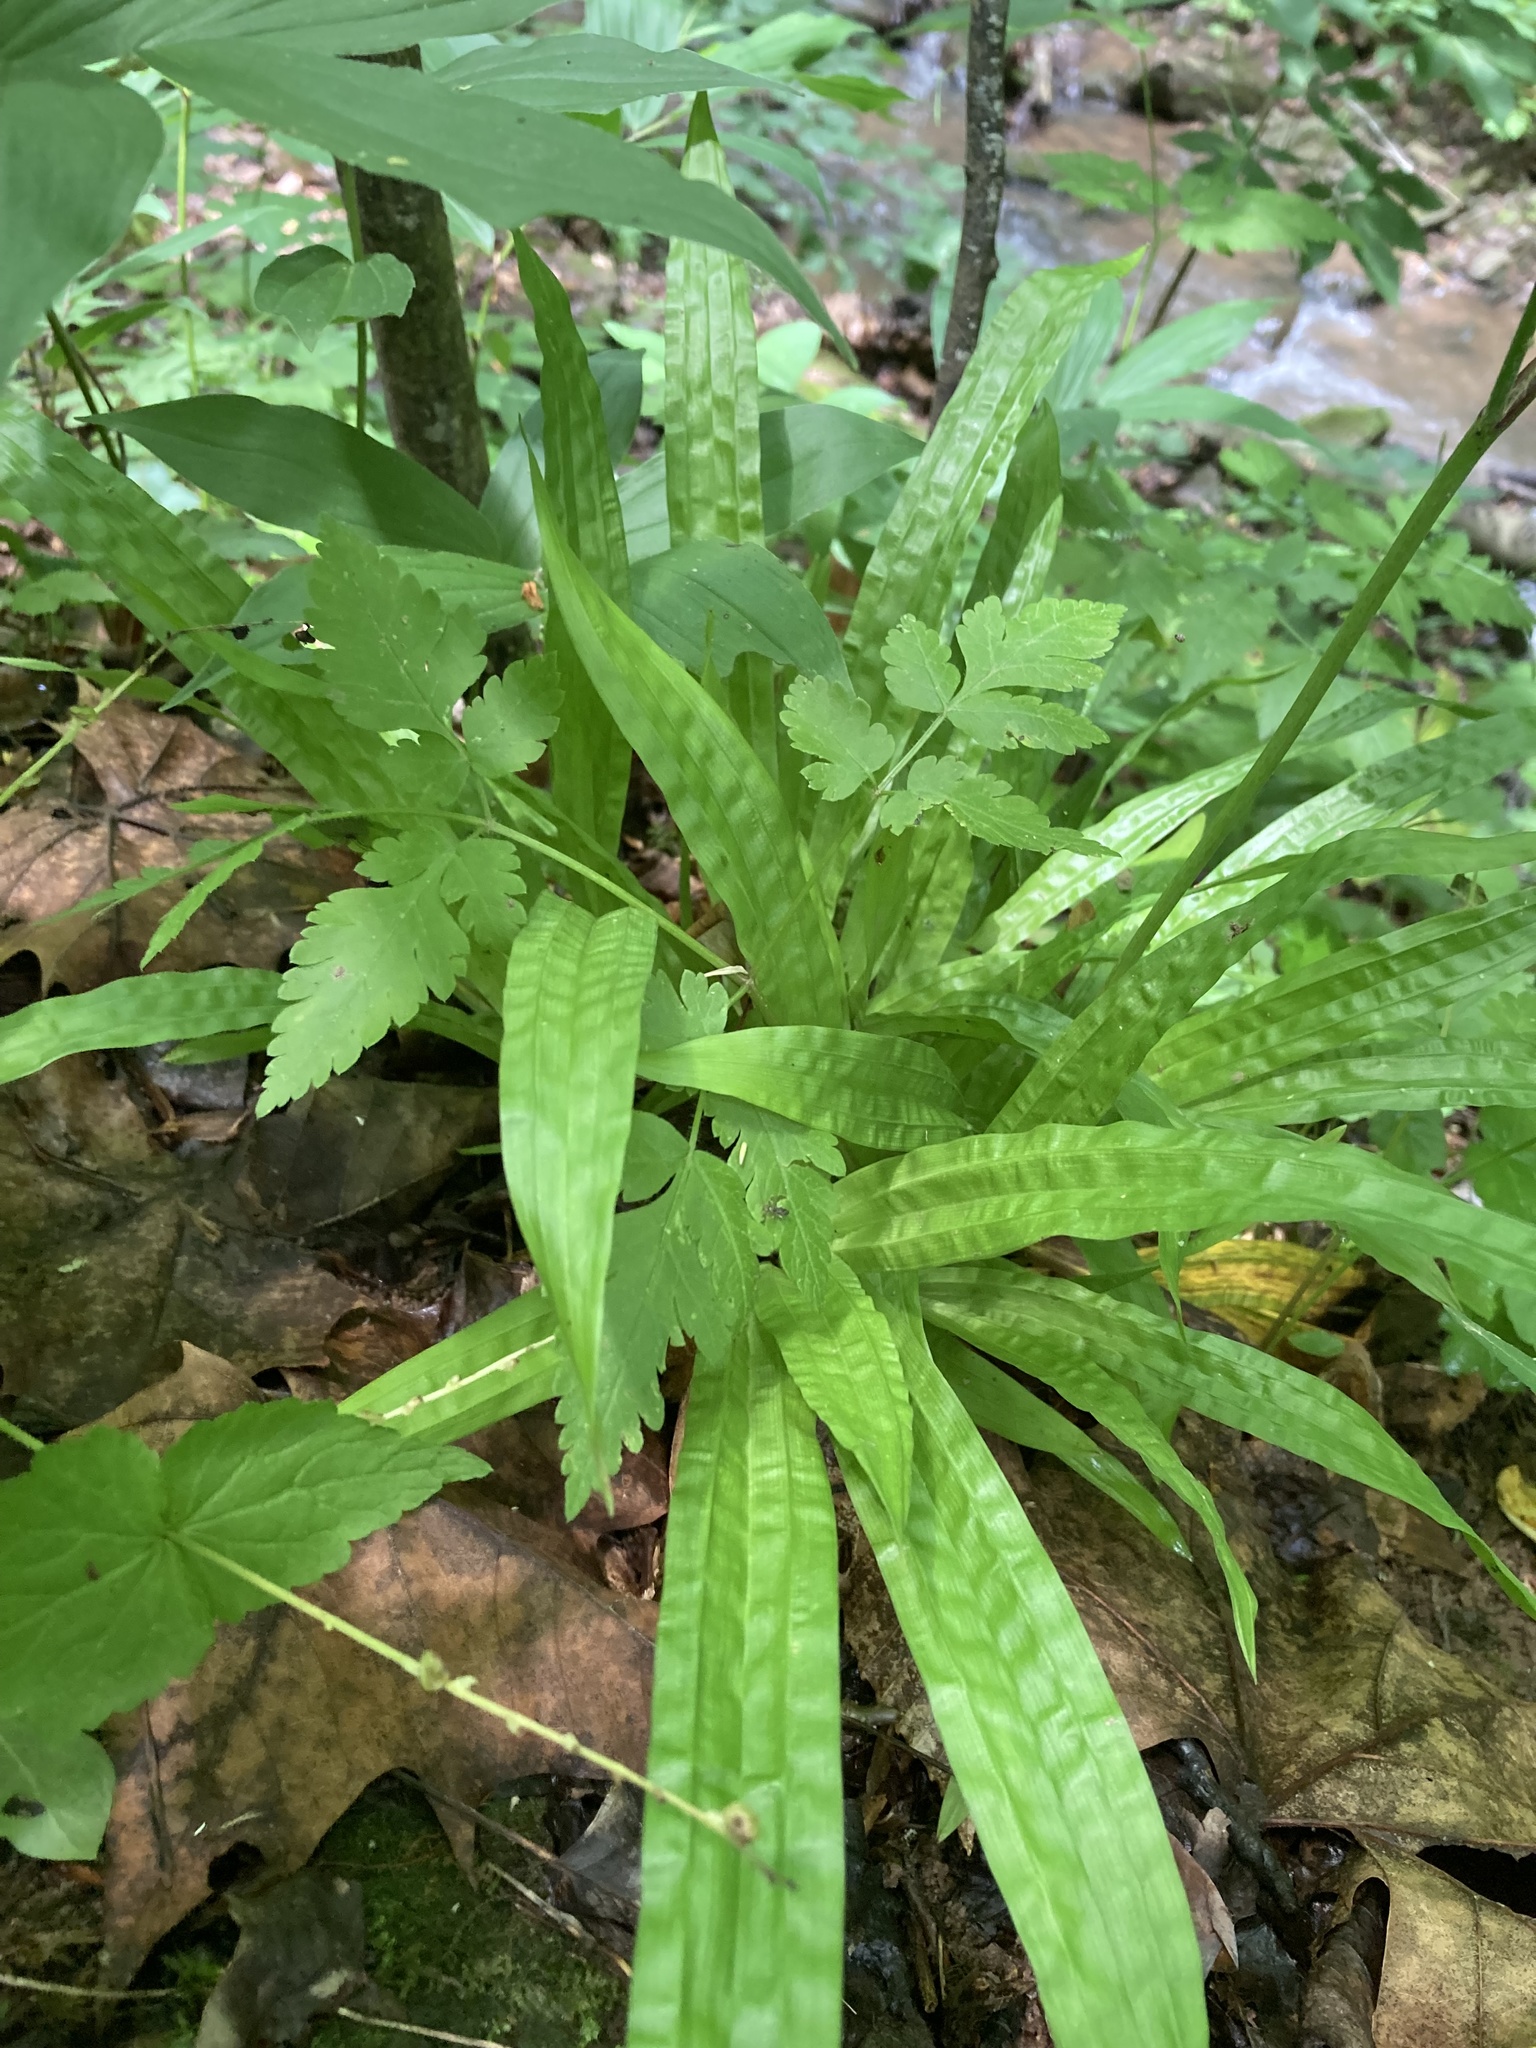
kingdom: Plantae
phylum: Tracheophyta
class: Liliopsida
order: Poales
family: Cyperaceae
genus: Carex
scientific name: Carex plantaginea
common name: Plantain-leaved sedge
